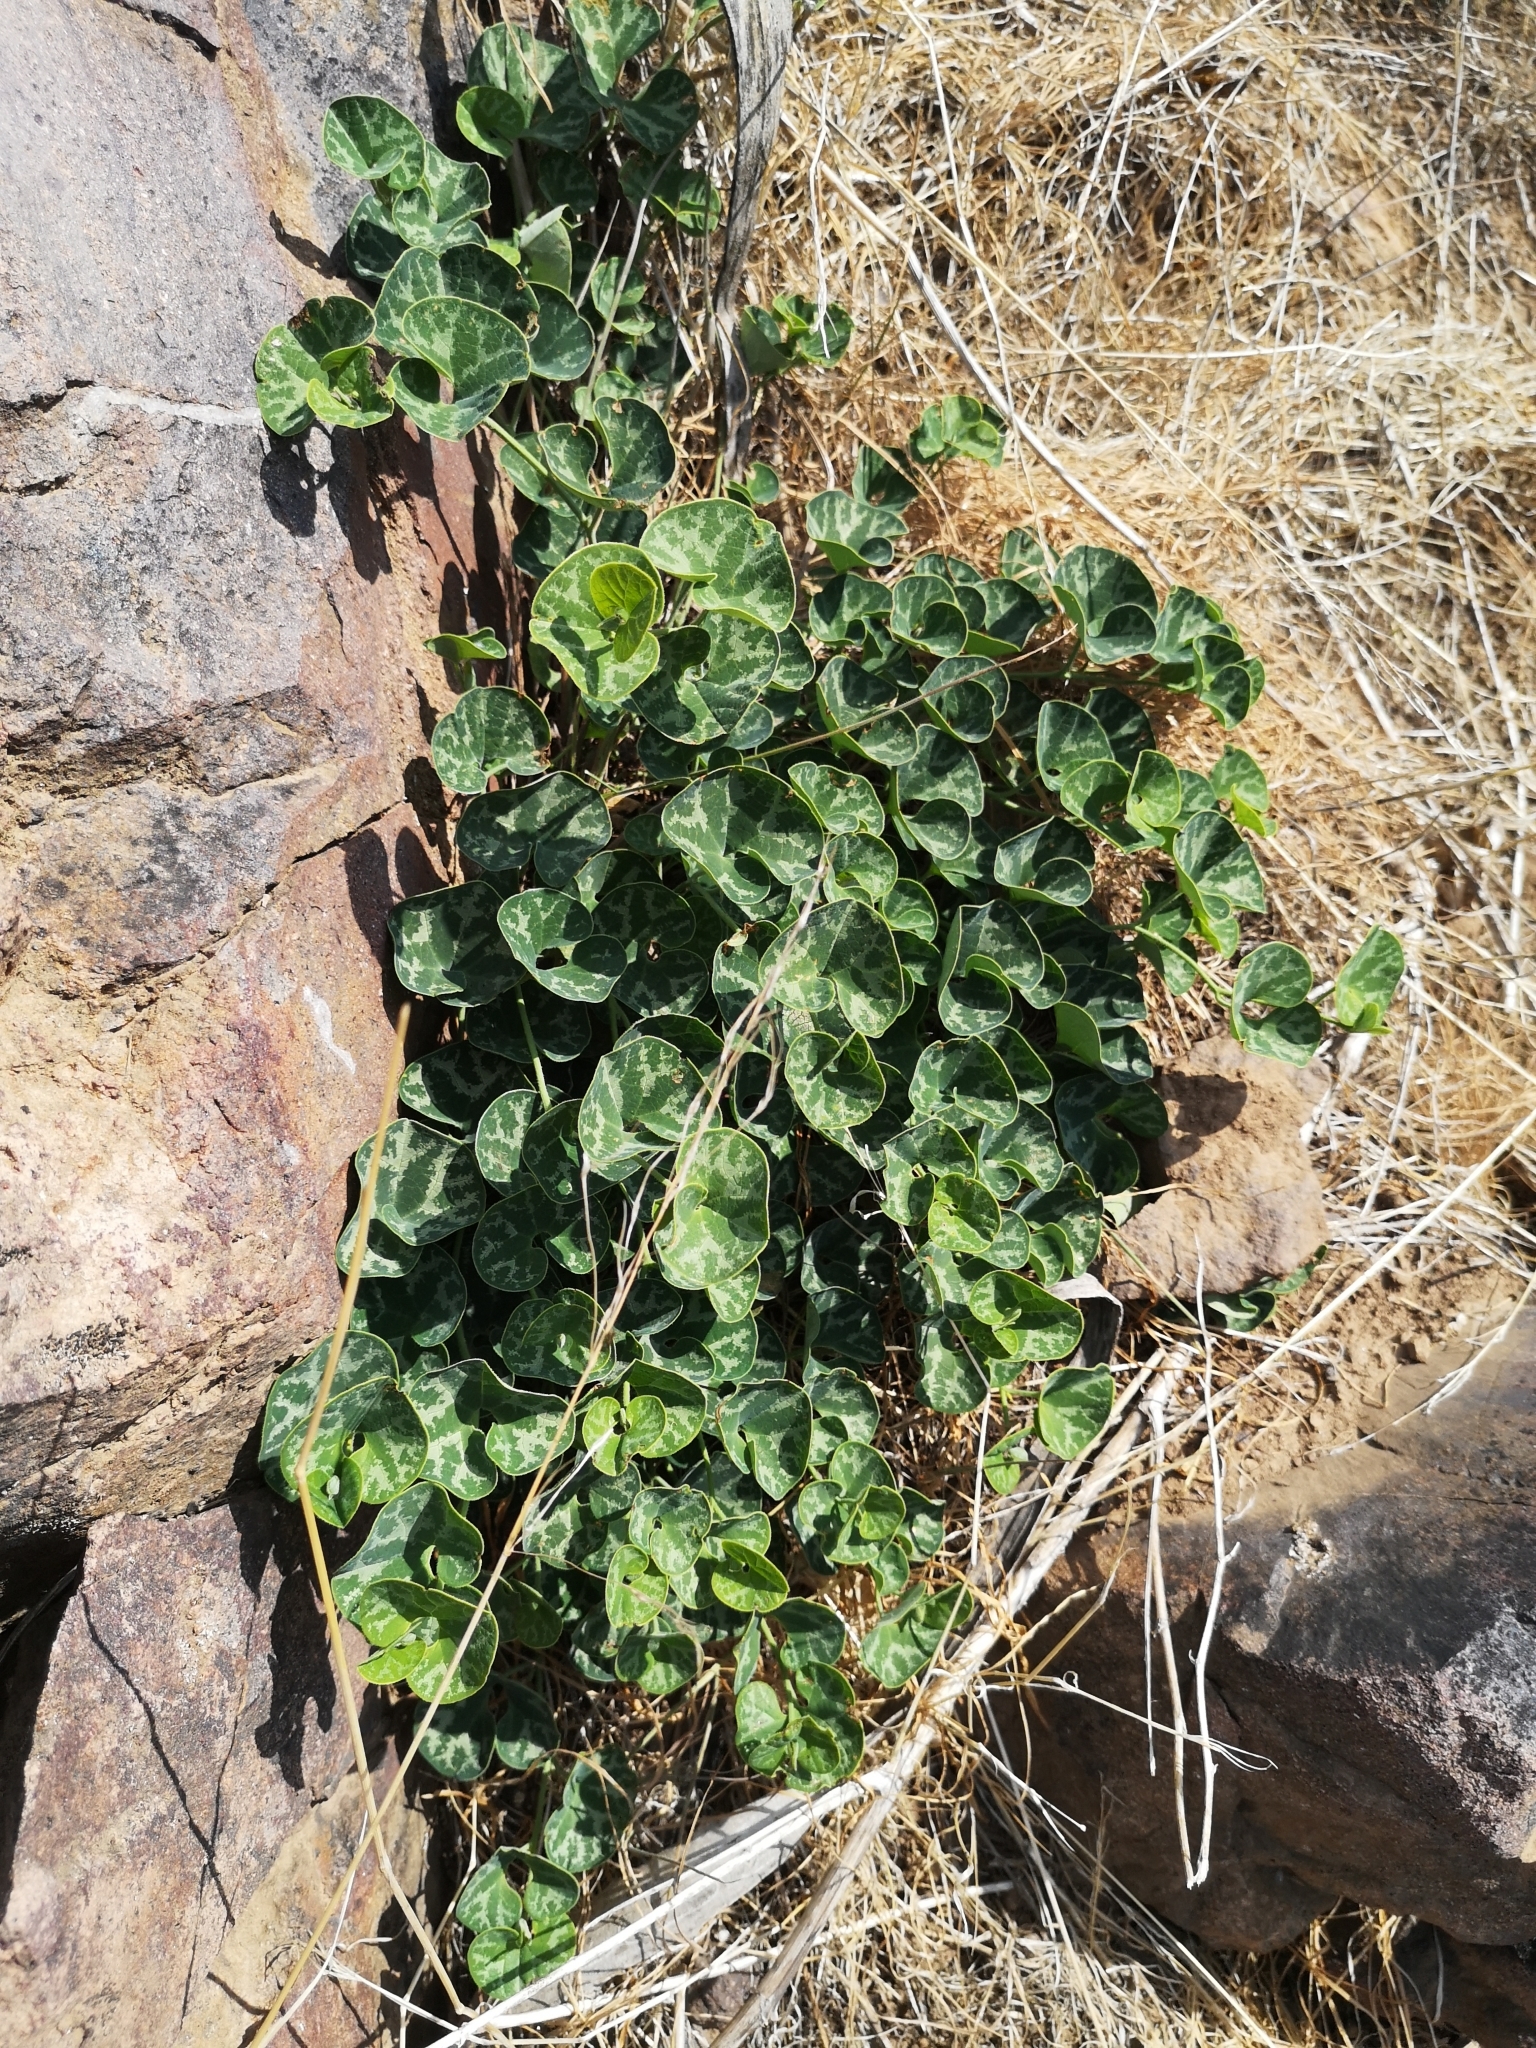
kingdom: Plantae
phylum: Tracheophyta
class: Magnoliopsida
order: Piperales
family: Aristolochiaceae
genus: Aristolochia
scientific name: Aristolochia chilensis
